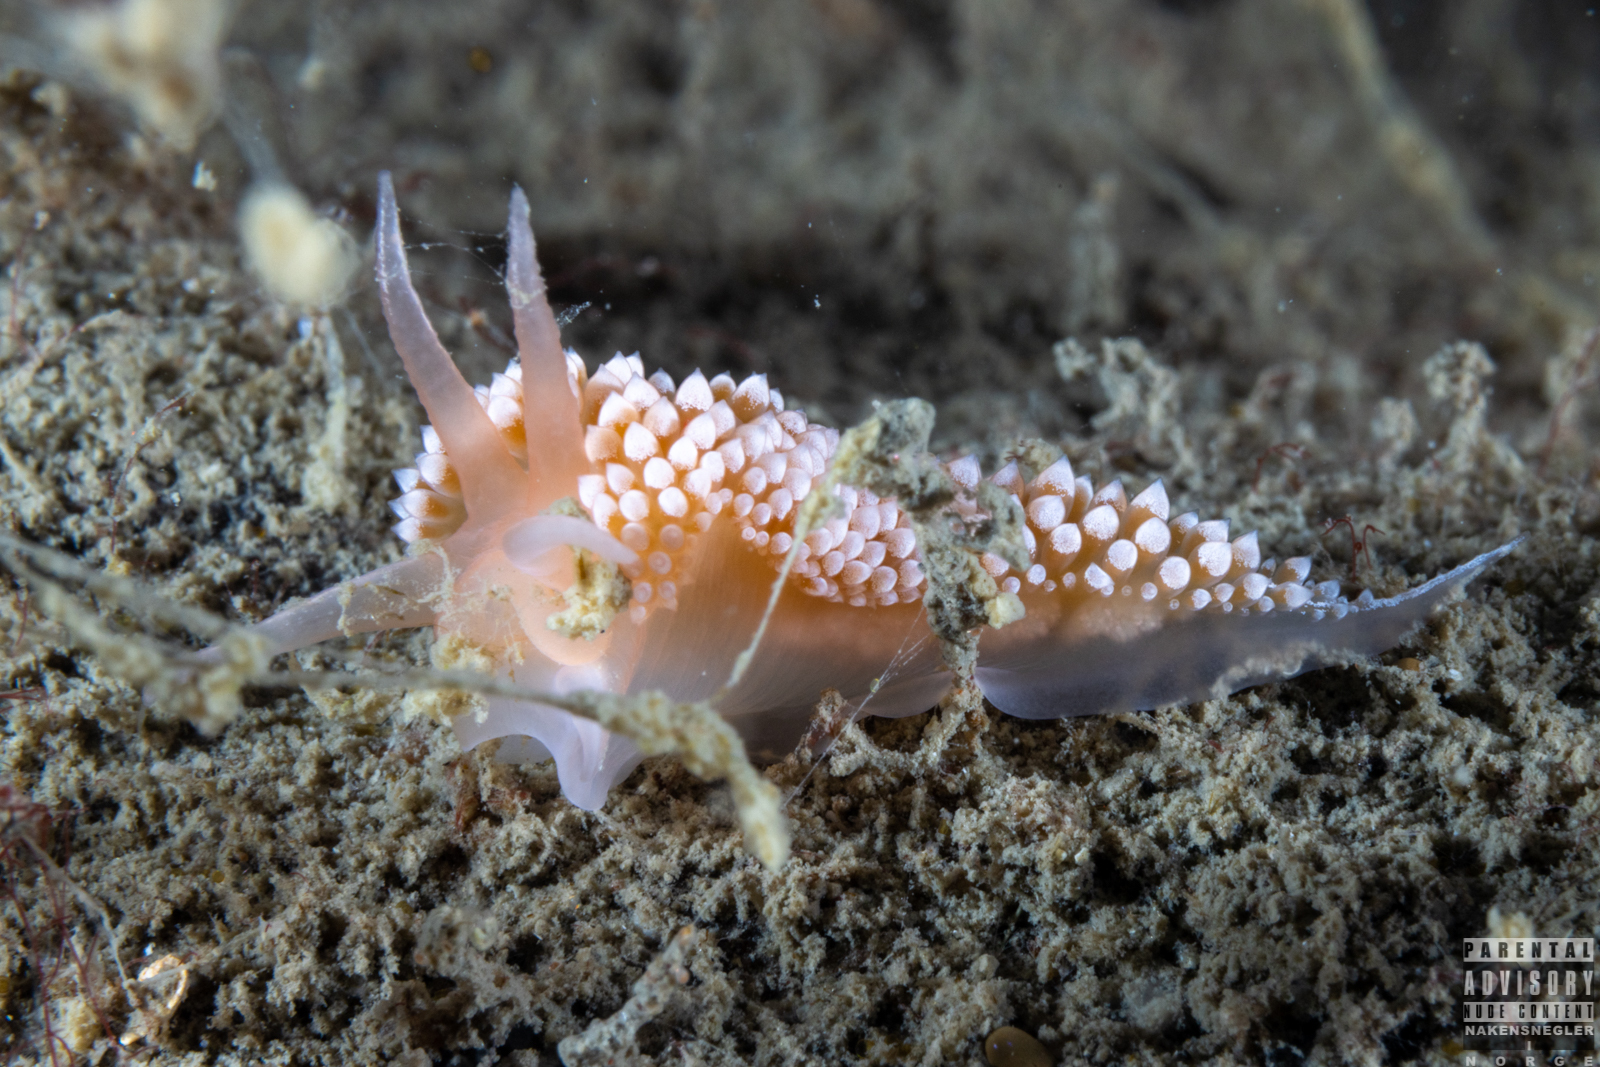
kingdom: Animalia
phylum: Mollusca
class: Gastropoda
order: Nudibranchia
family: Coryphellidae
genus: Coryphella
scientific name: Coryphella verrucosa
